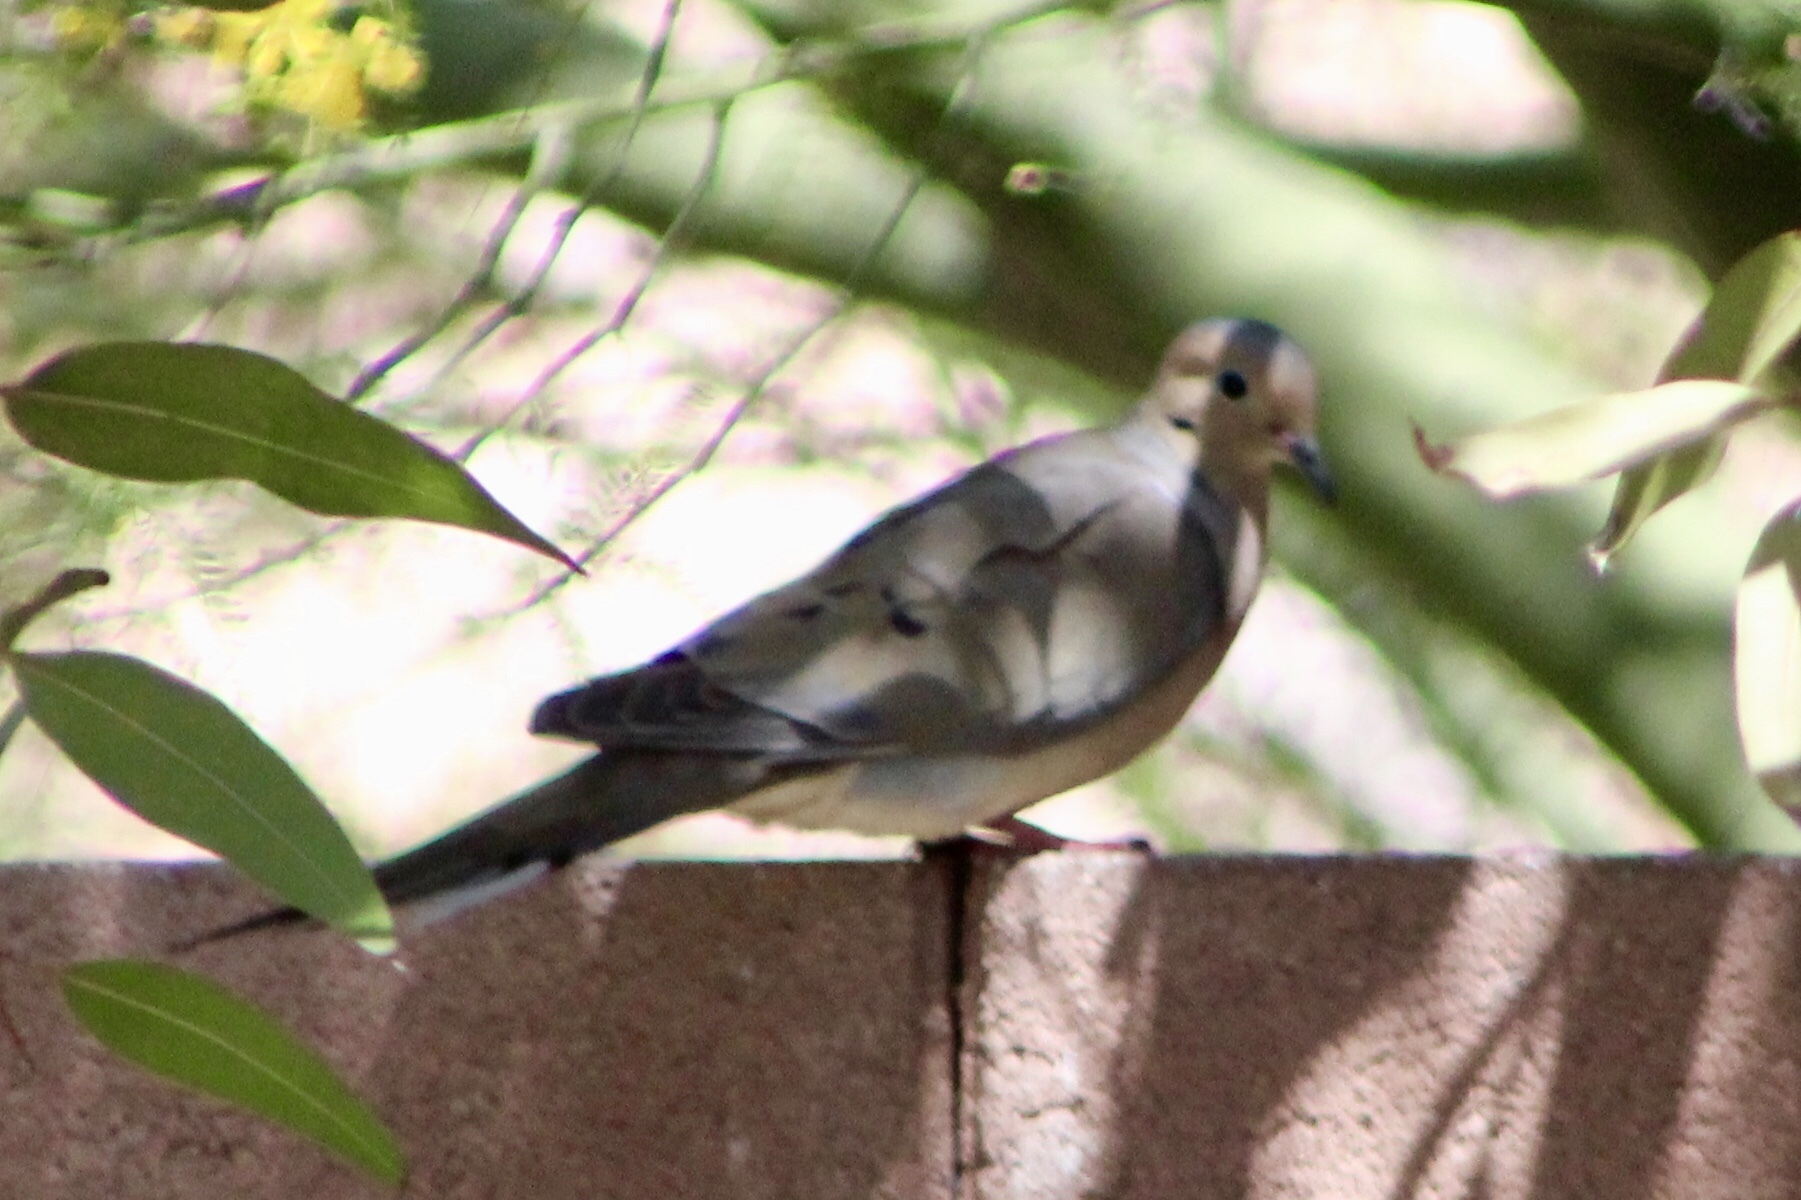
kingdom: Animalia
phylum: Chordata
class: Aves
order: Columbiformes
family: Columbidae
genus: Zenaida
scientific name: Zenaida macroura
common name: Mourning dove
